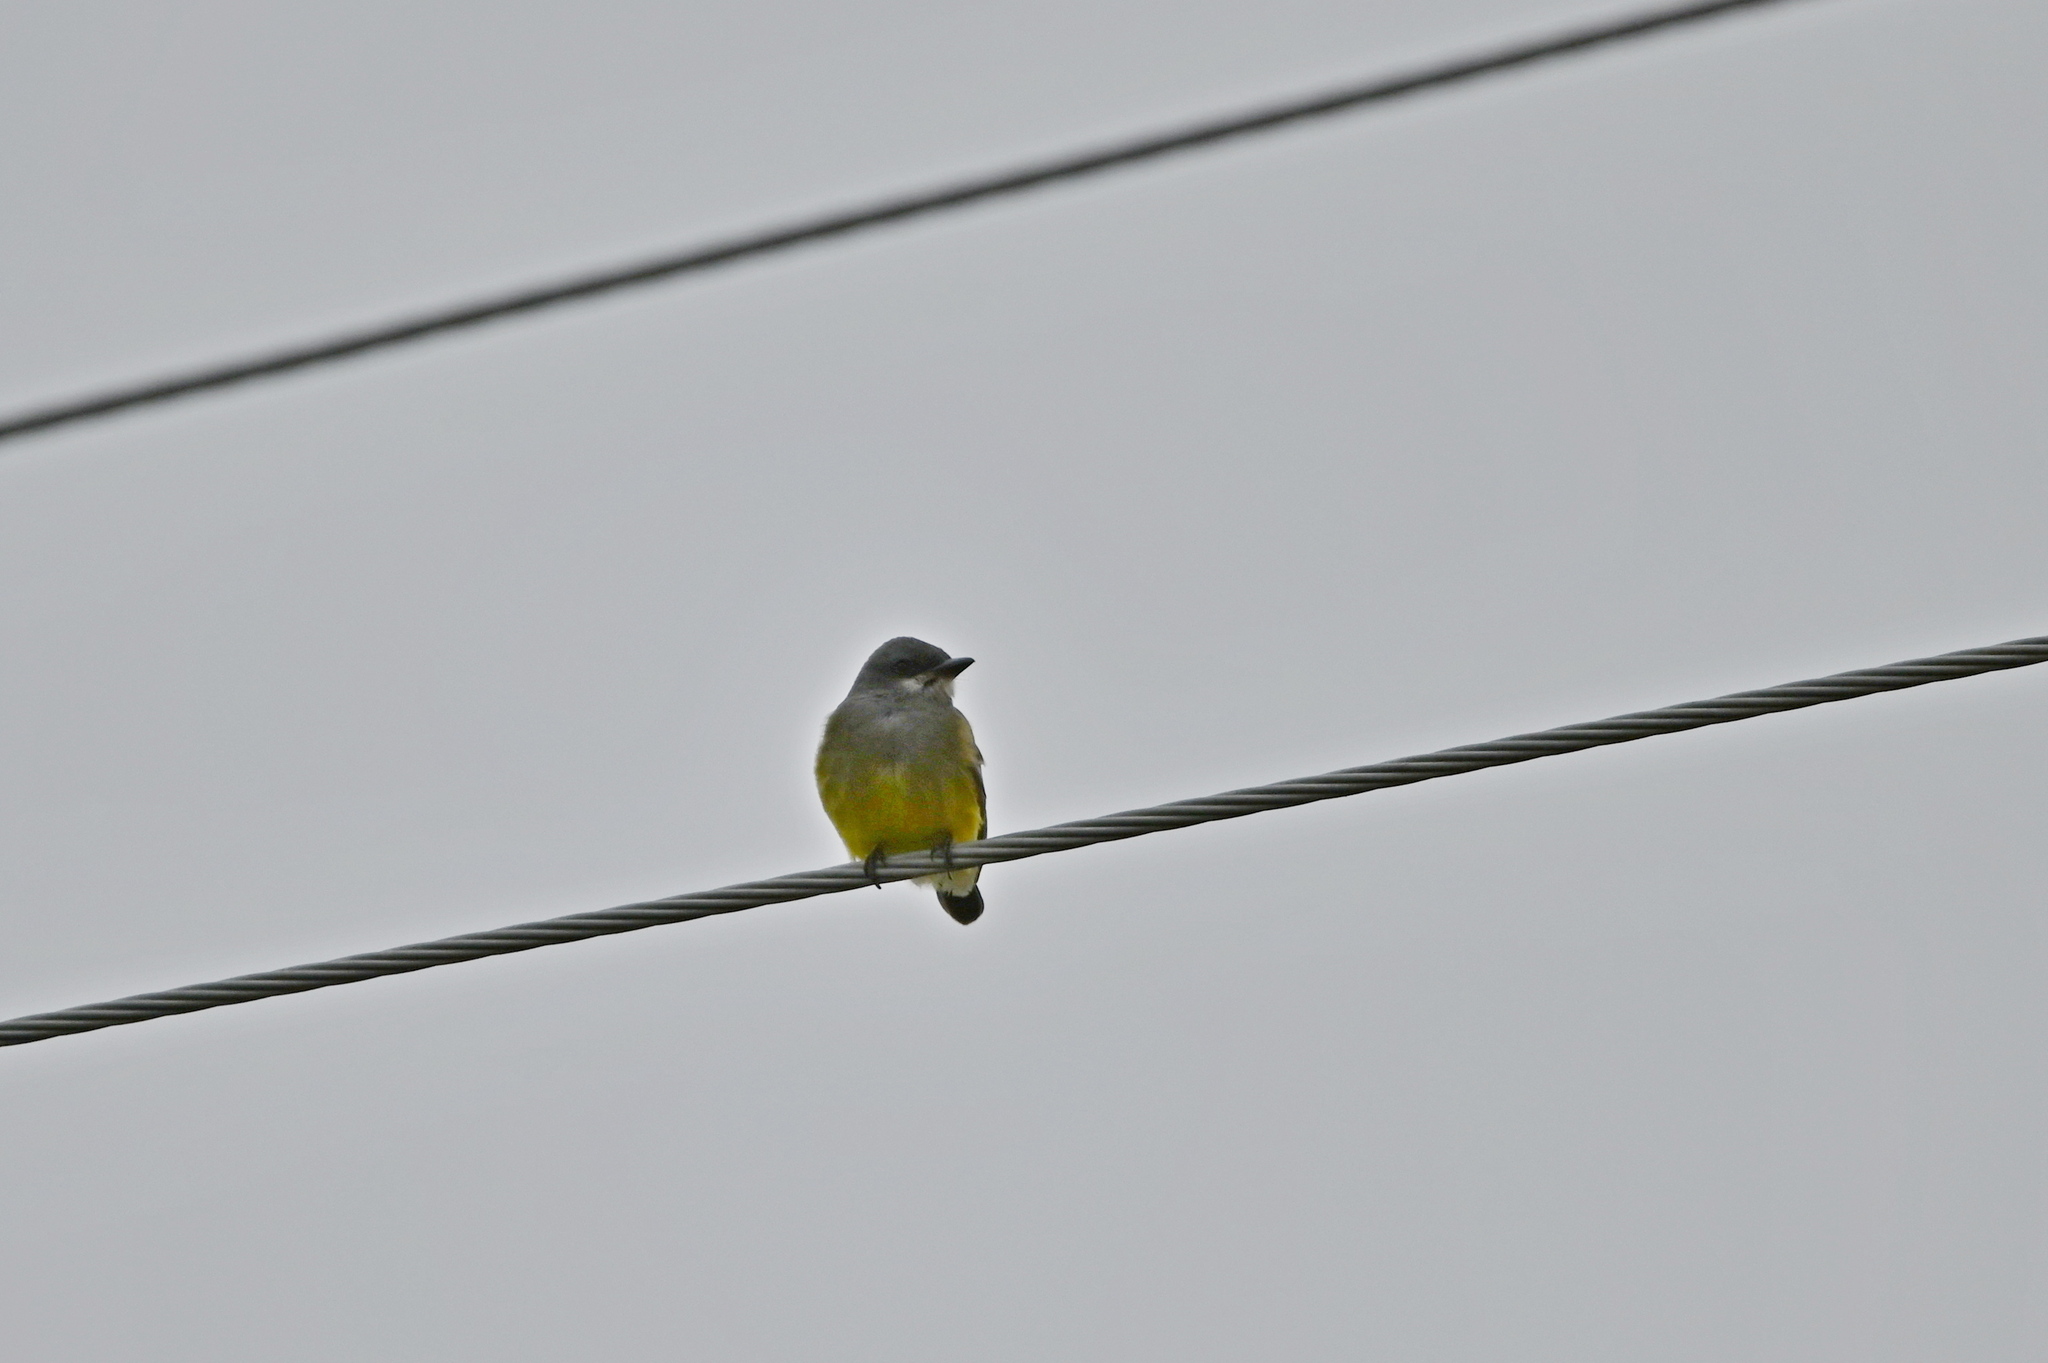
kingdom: Animalia
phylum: Chordata
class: Aves
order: Passeriformes
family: Tyrannidae
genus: Tyrannus
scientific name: Tyrannus vociferans
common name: Cassin's kingbird
